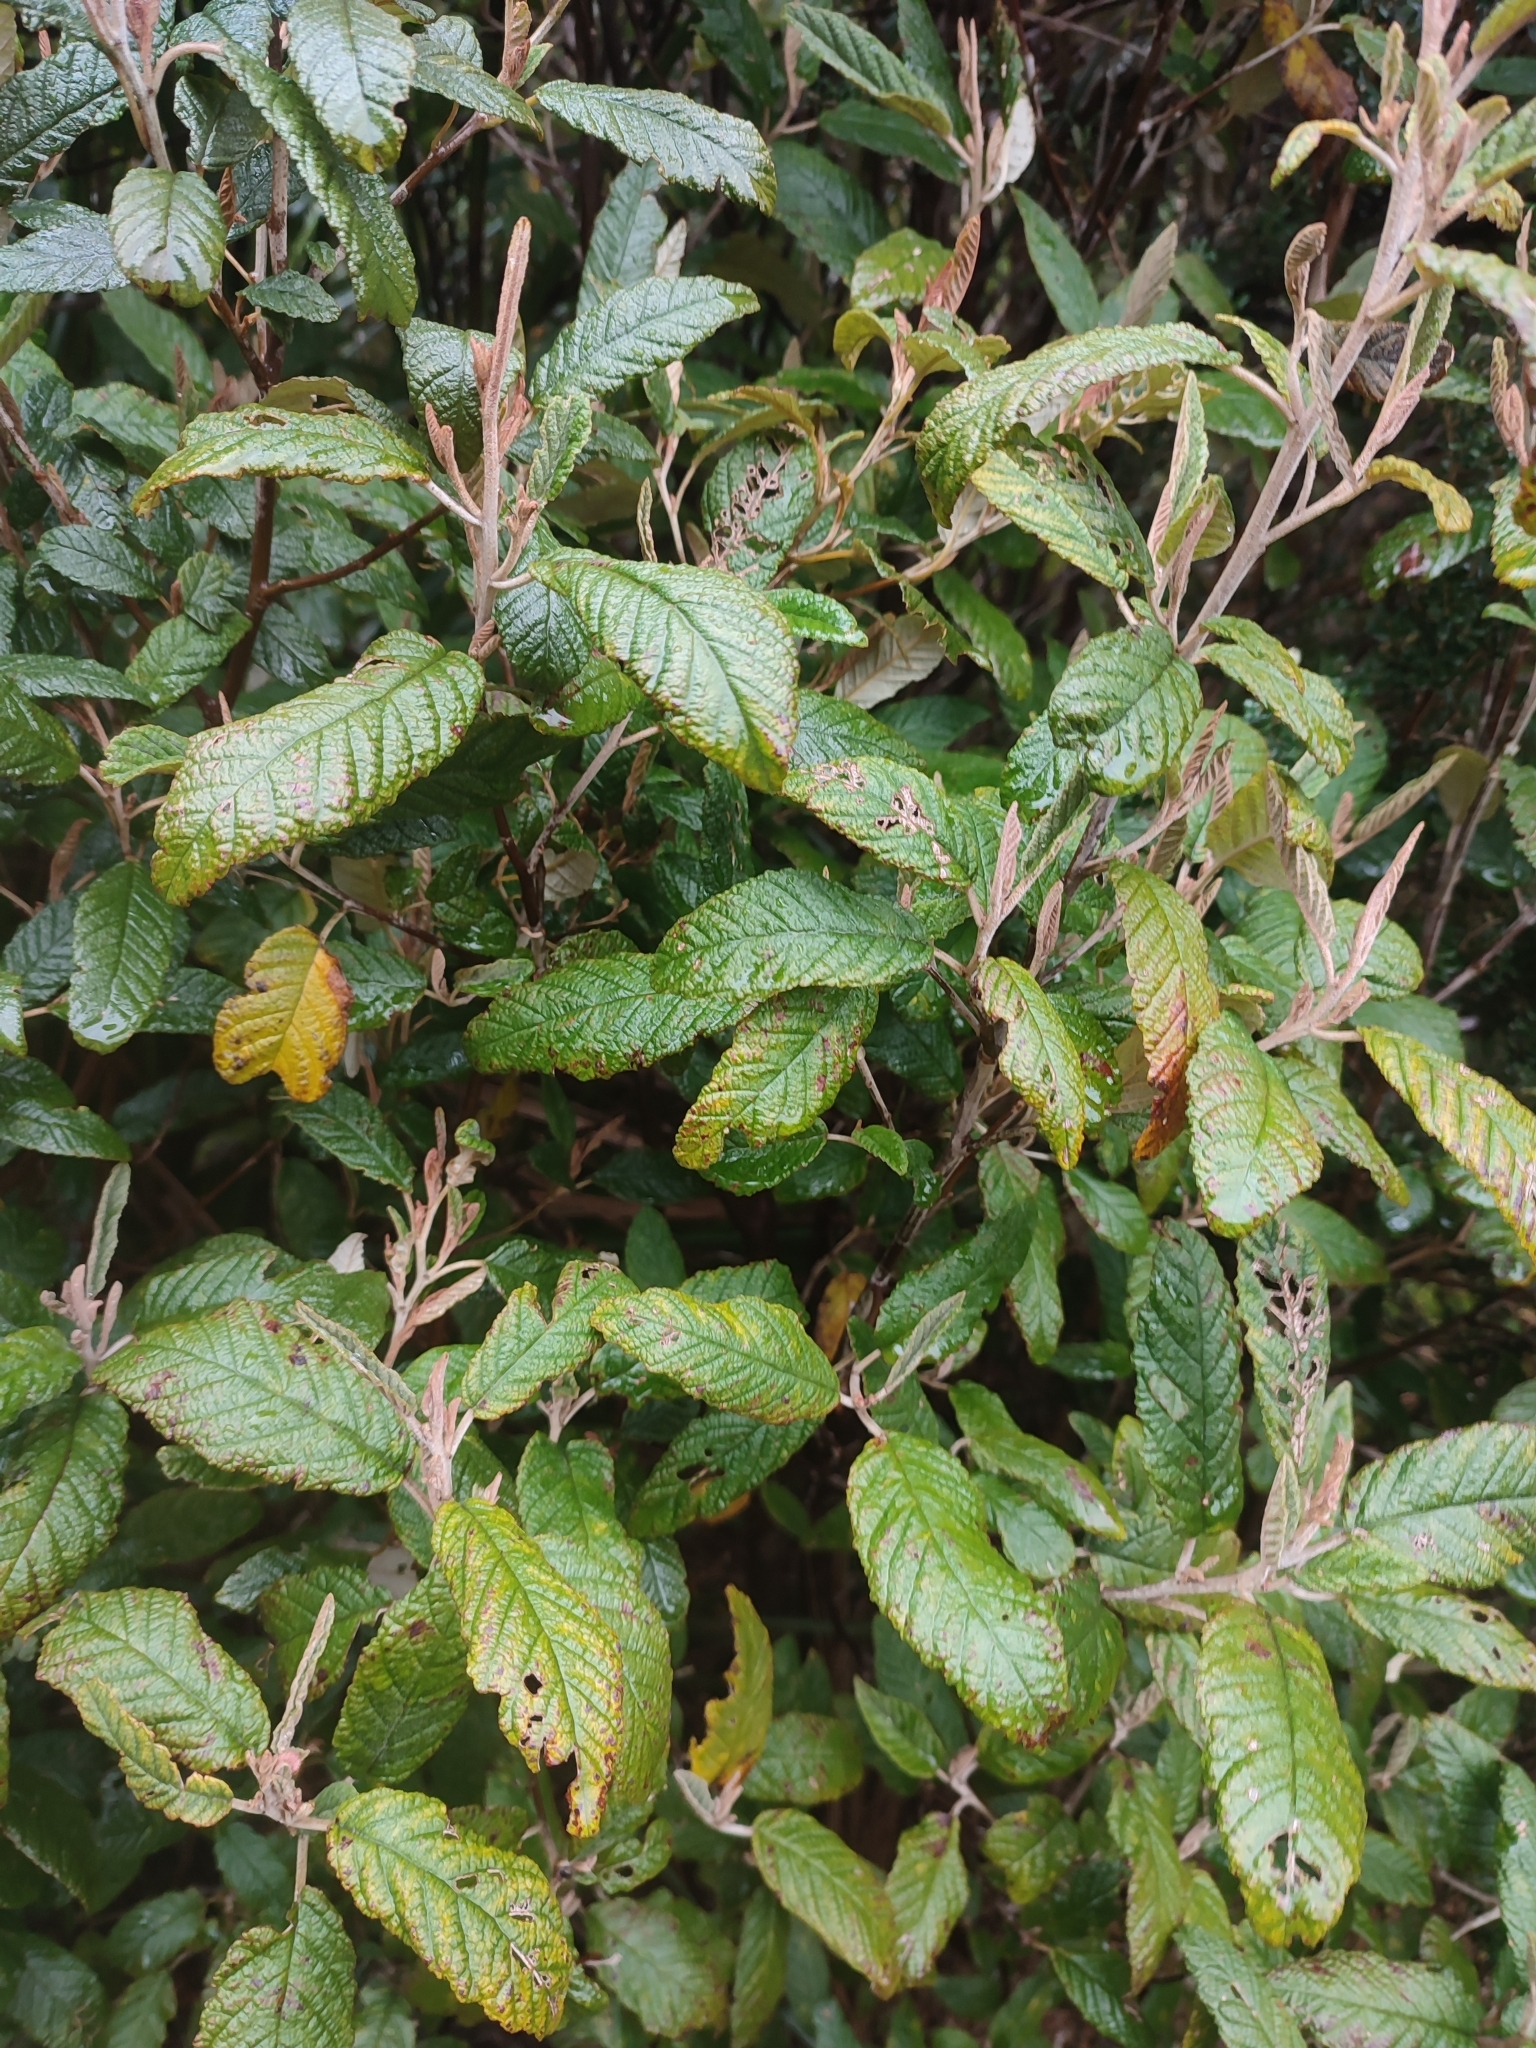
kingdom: Plantae
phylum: Tracheophyta
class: Magnoliopsida
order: Rosales
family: Rhamnaceae
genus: Pomaderris
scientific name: Pomaderris apetala
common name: Hazel pomaderris
